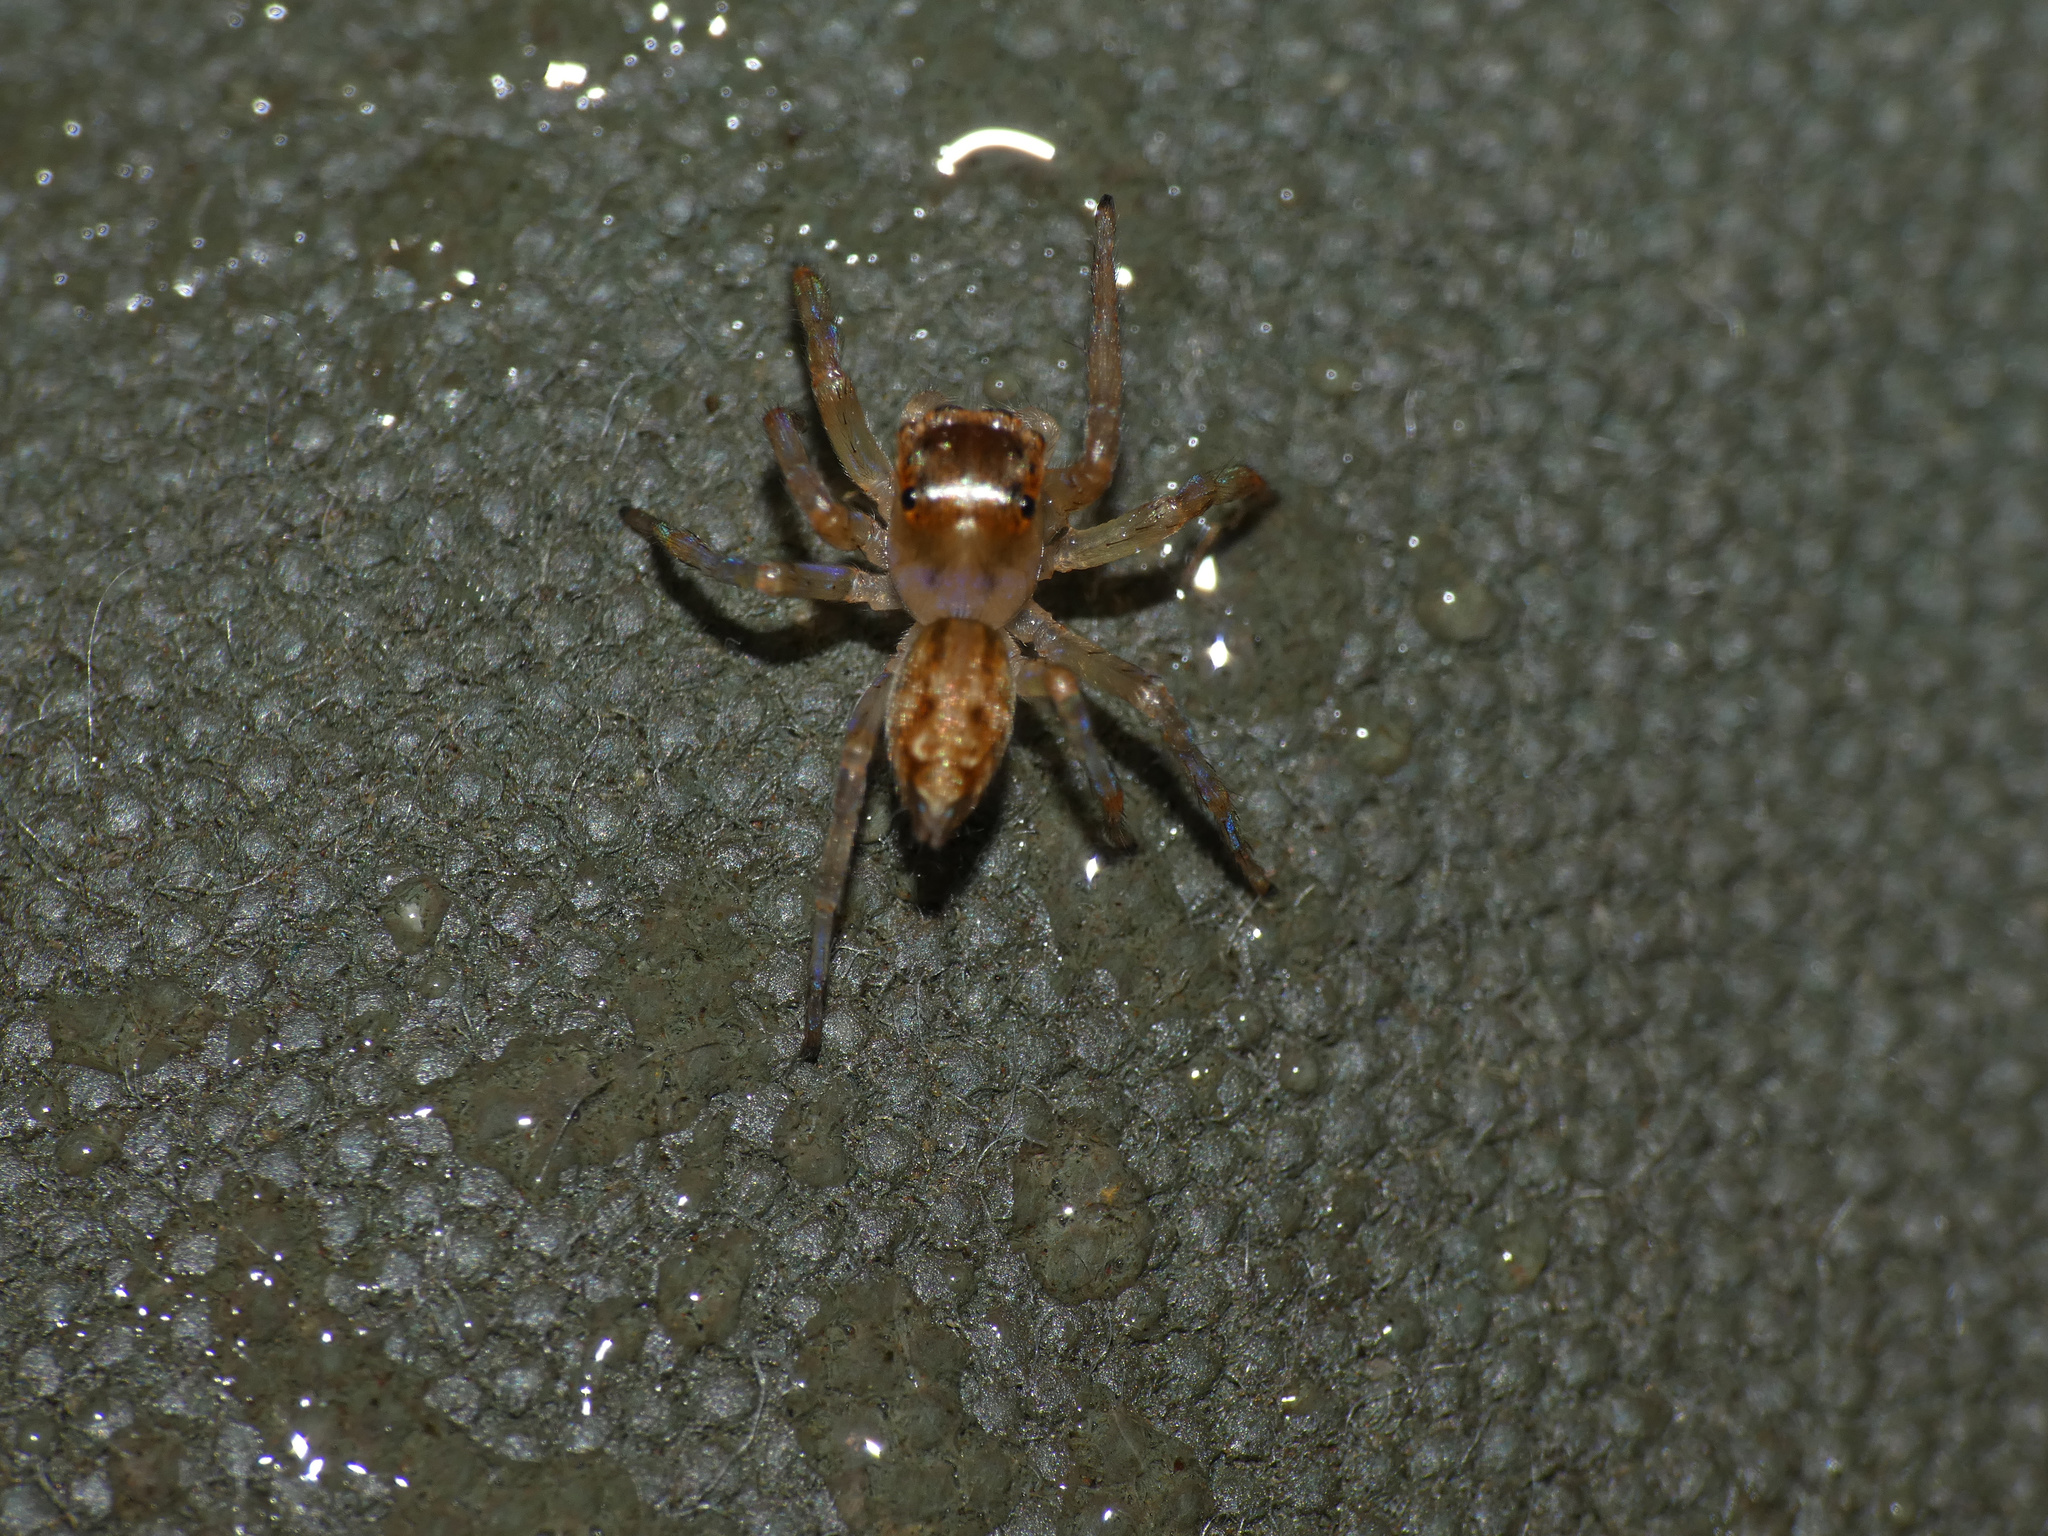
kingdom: Animalia
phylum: Arthropoda
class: Arachnida
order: Araneae
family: Salticidae
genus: Thyenula
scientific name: Thyenula munda
